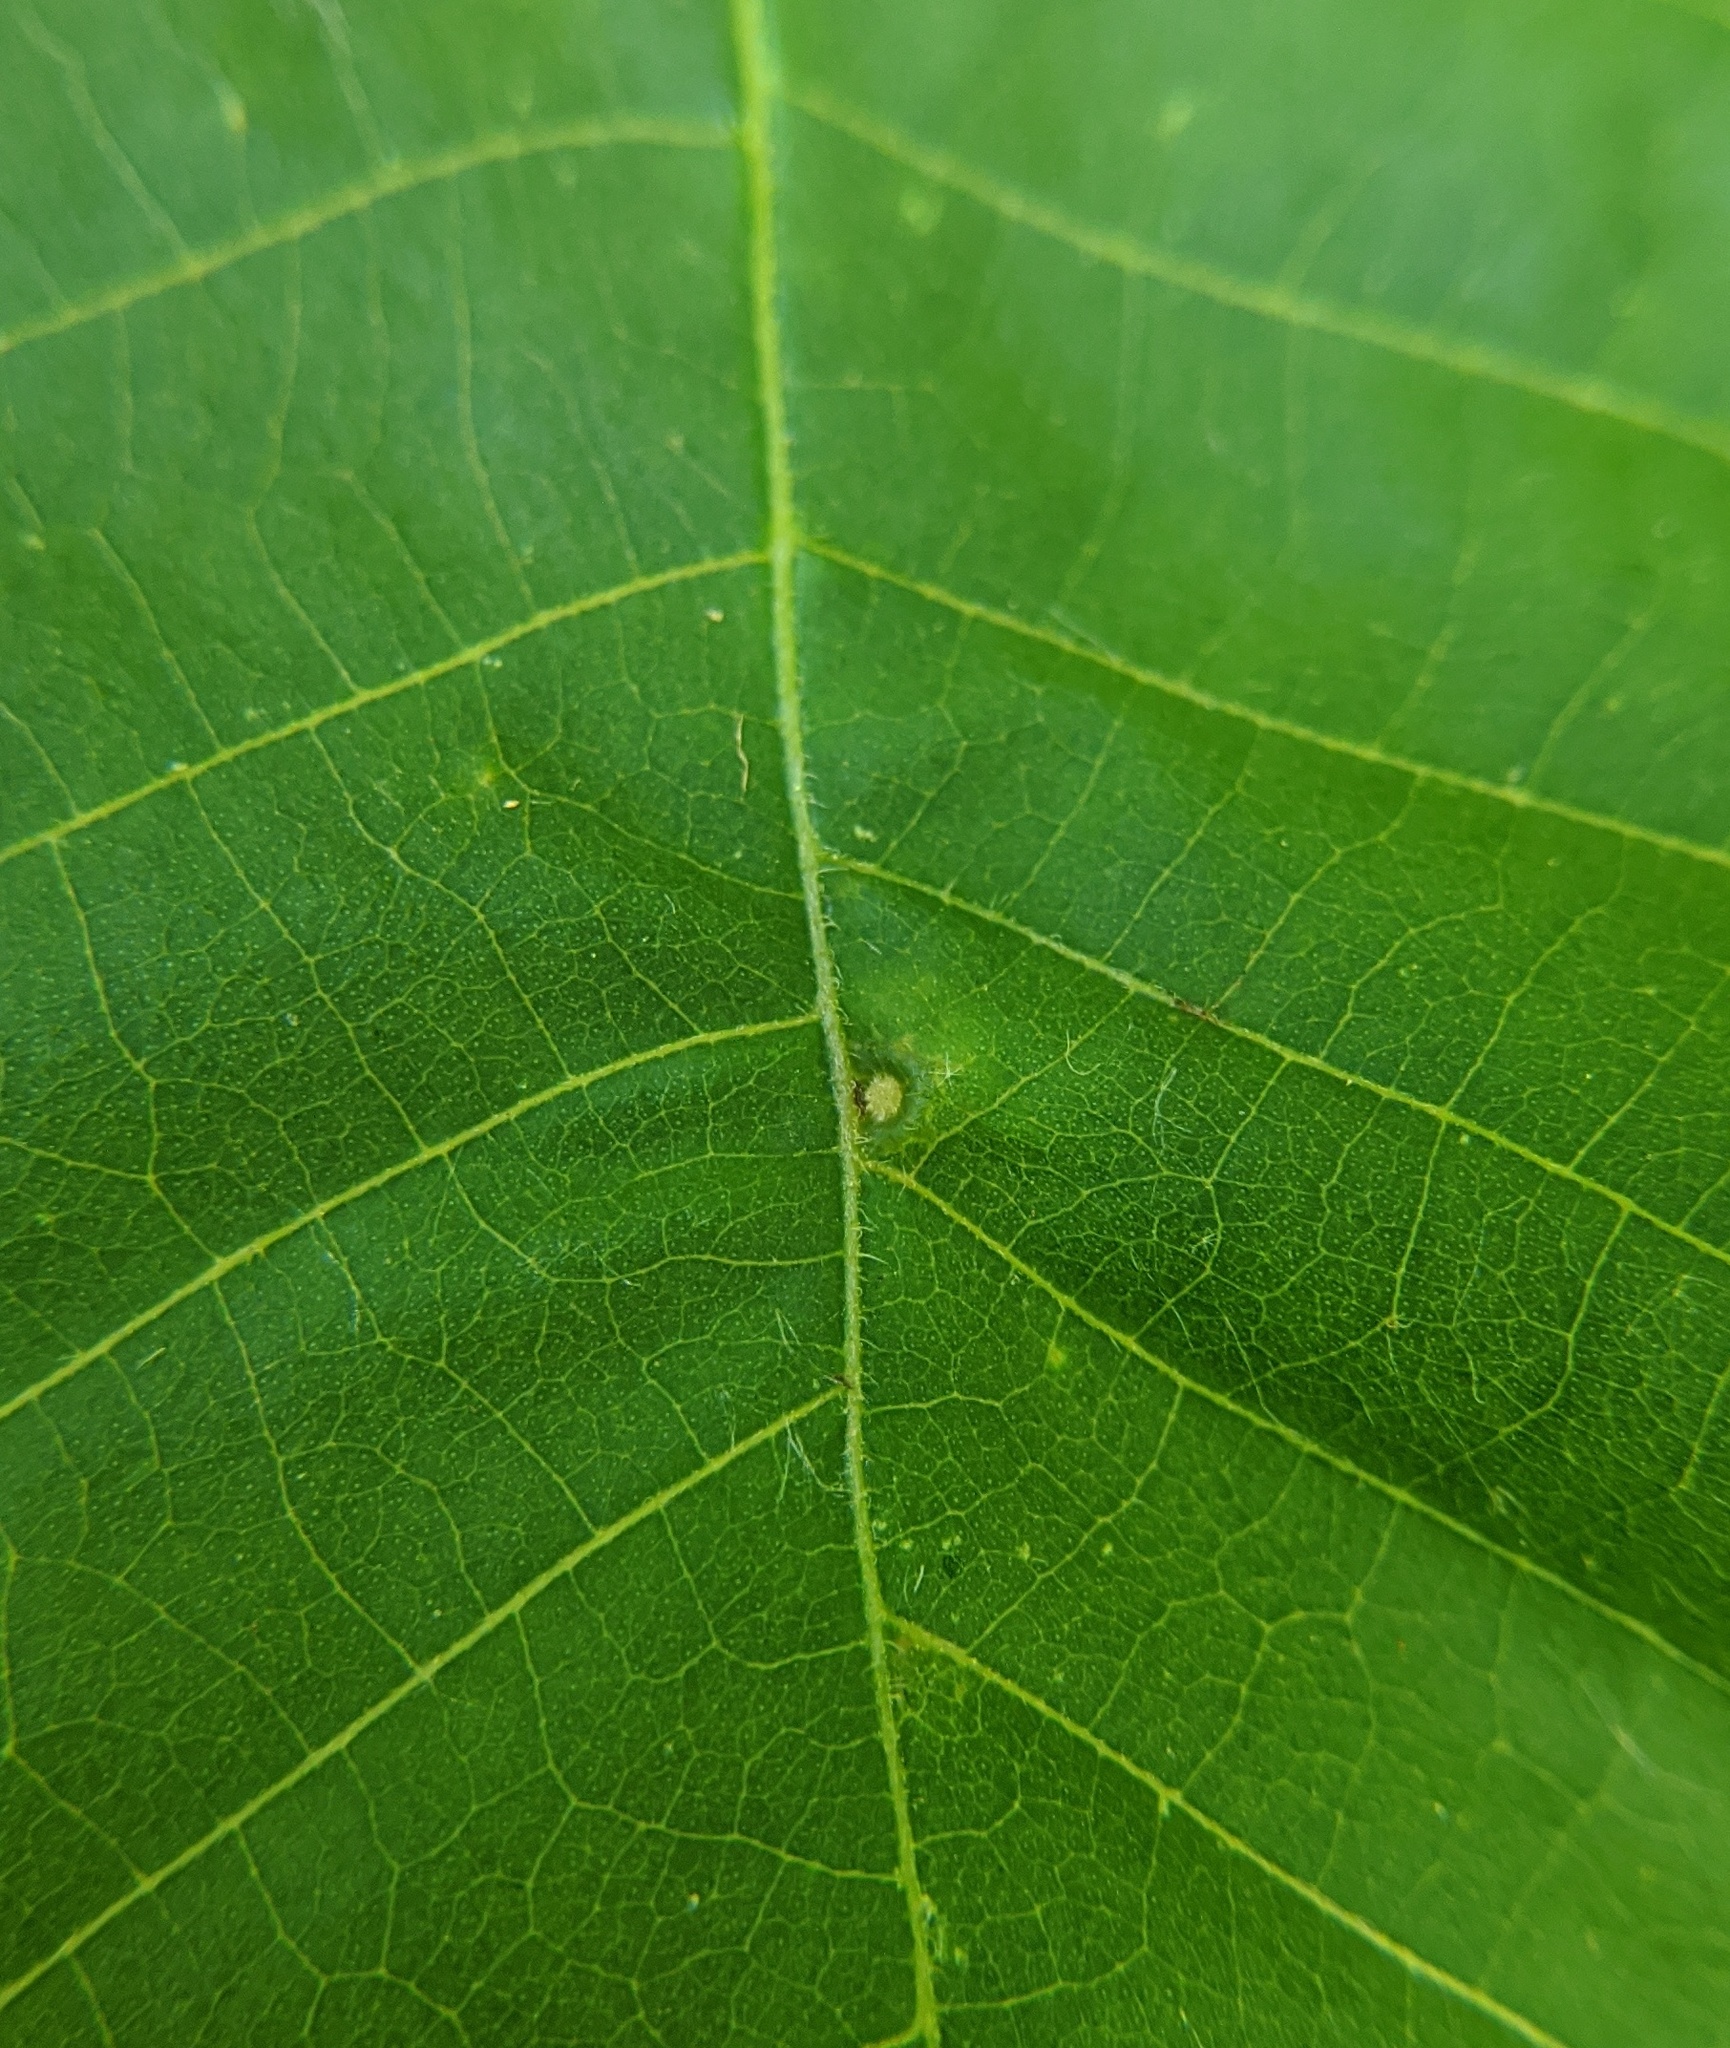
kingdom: Animalia
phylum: Arthropoda
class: Insecta
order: Diptera
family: Cecidomyiidae
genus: Caryomyia
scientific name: Caryomyia cilidolium
